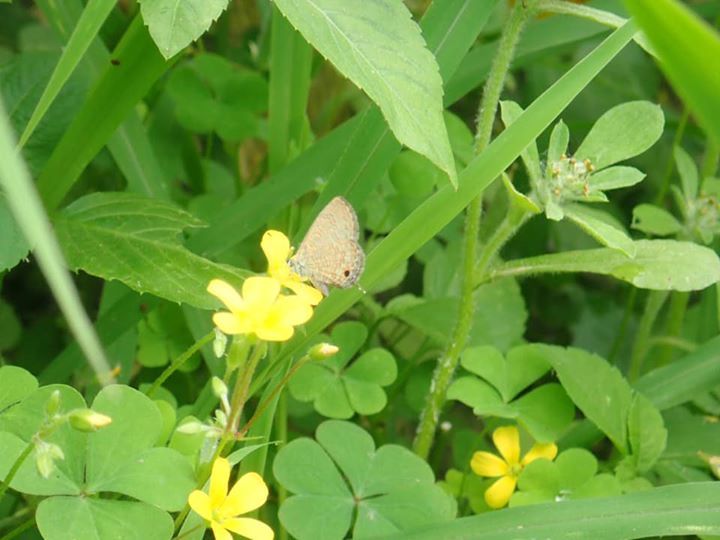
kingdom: Animalia
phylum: Arthropoda
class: Insecta
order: Lepidoptera
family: Lycaenidae
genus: Prosotas
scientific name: Prosotas nora
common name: Common line blue
